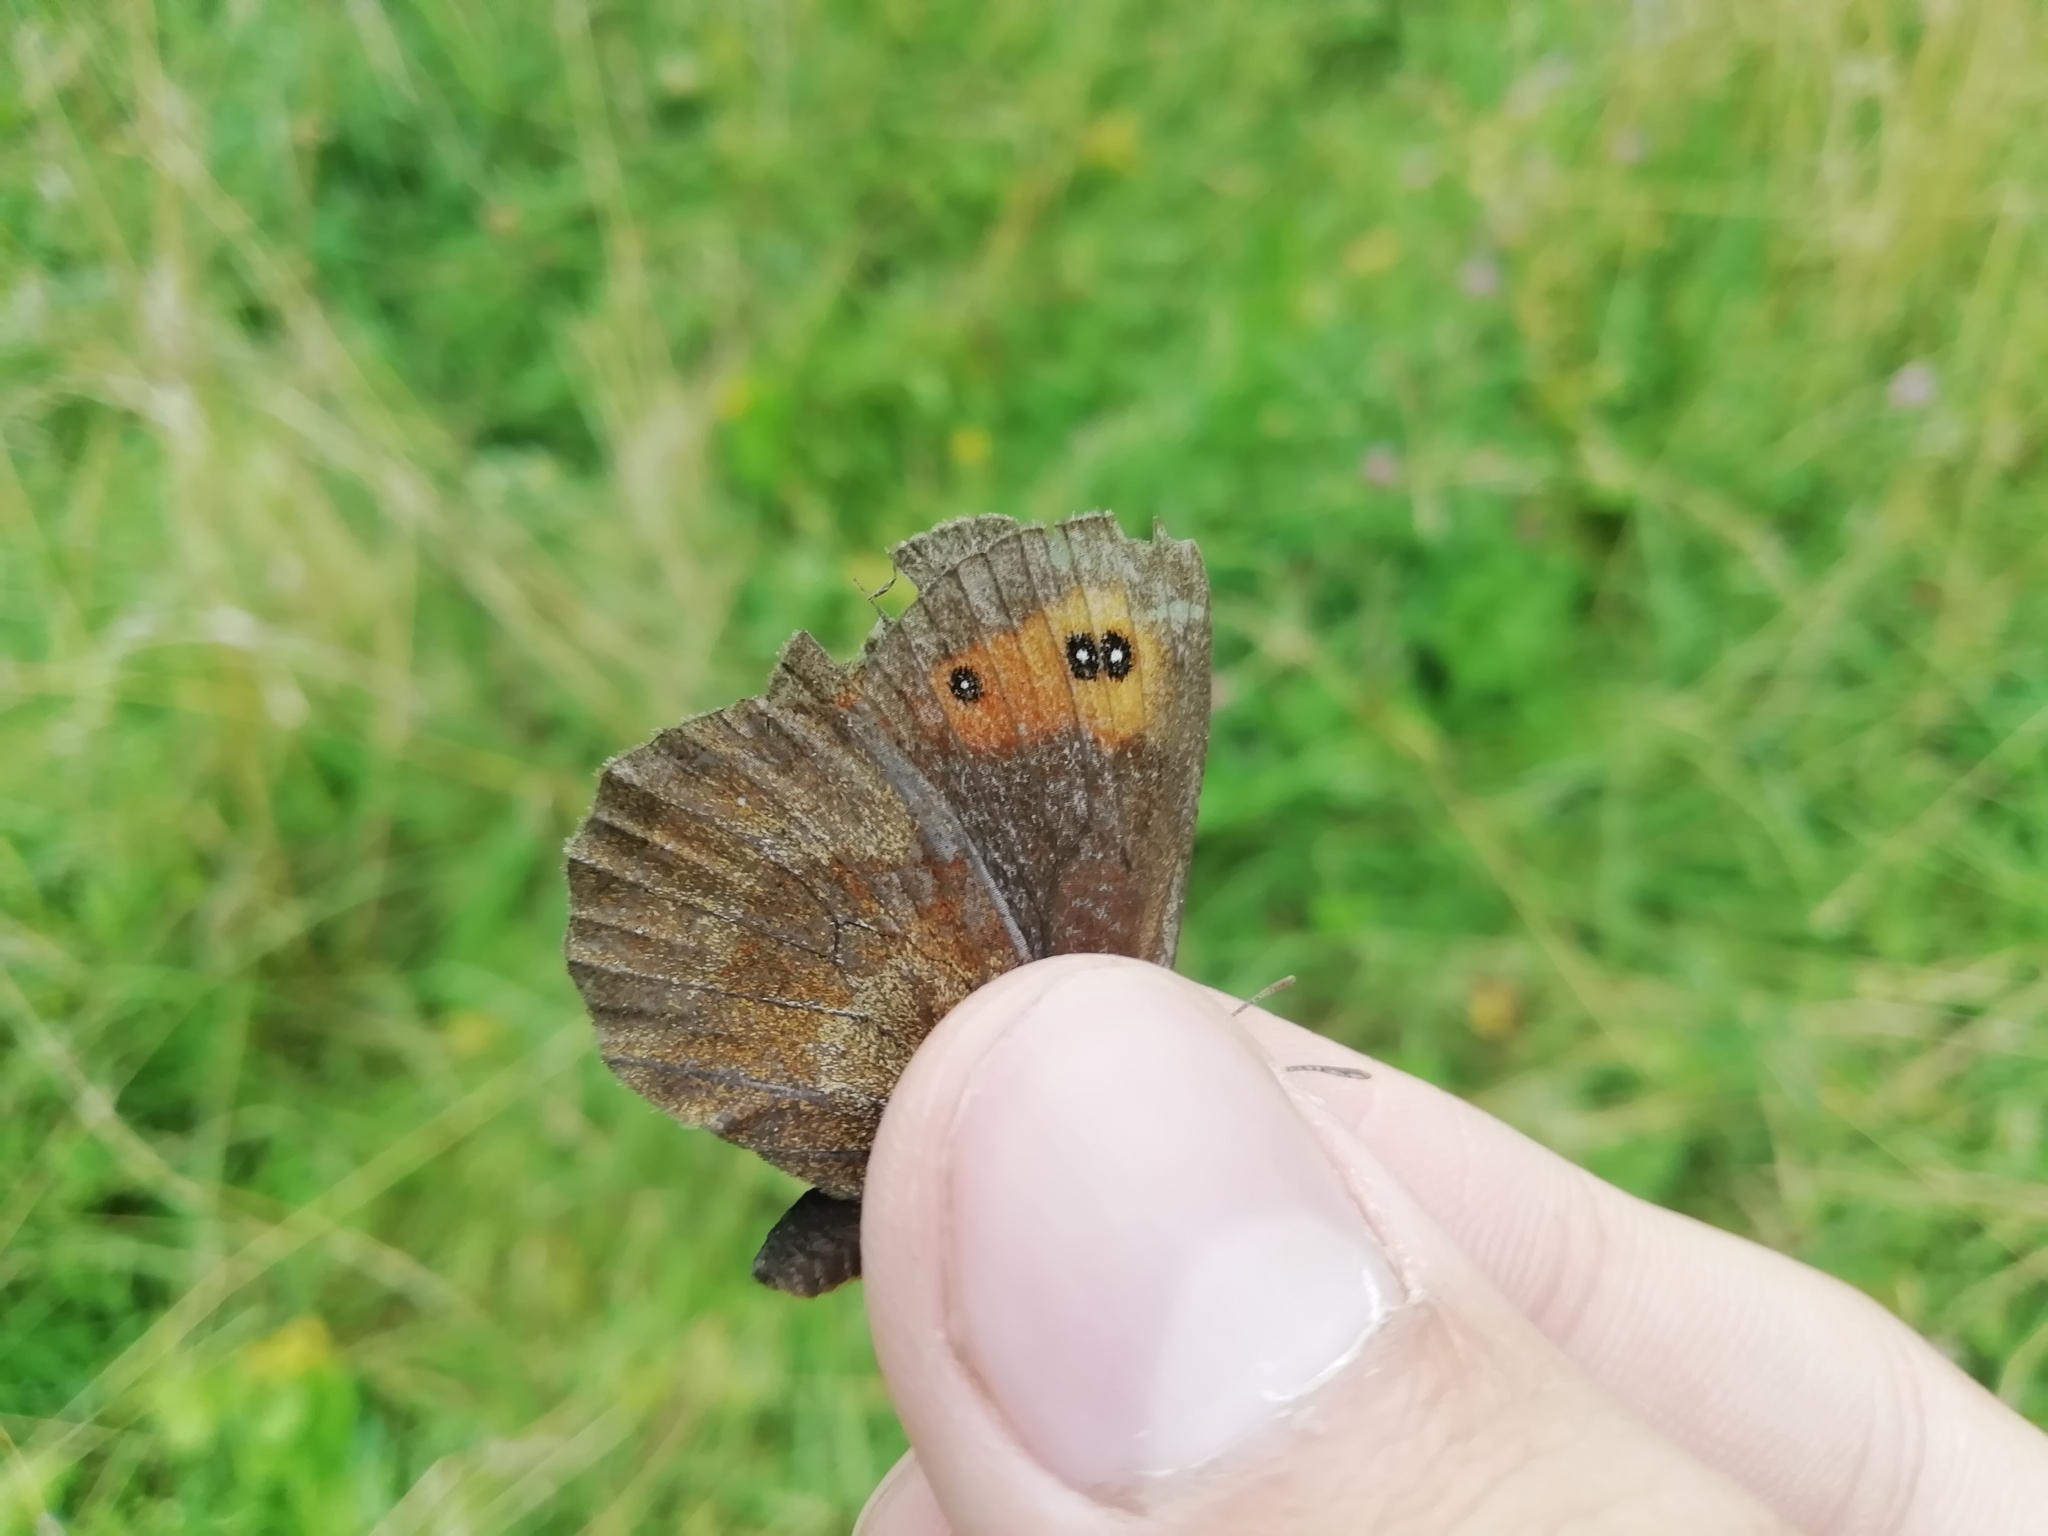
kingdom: Animalia
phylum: Arthropoda
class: Insecta
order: Lepidoptera
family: Nymphalidae
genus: Erebia
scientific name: Erebia aethiops
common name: Scotch argus
